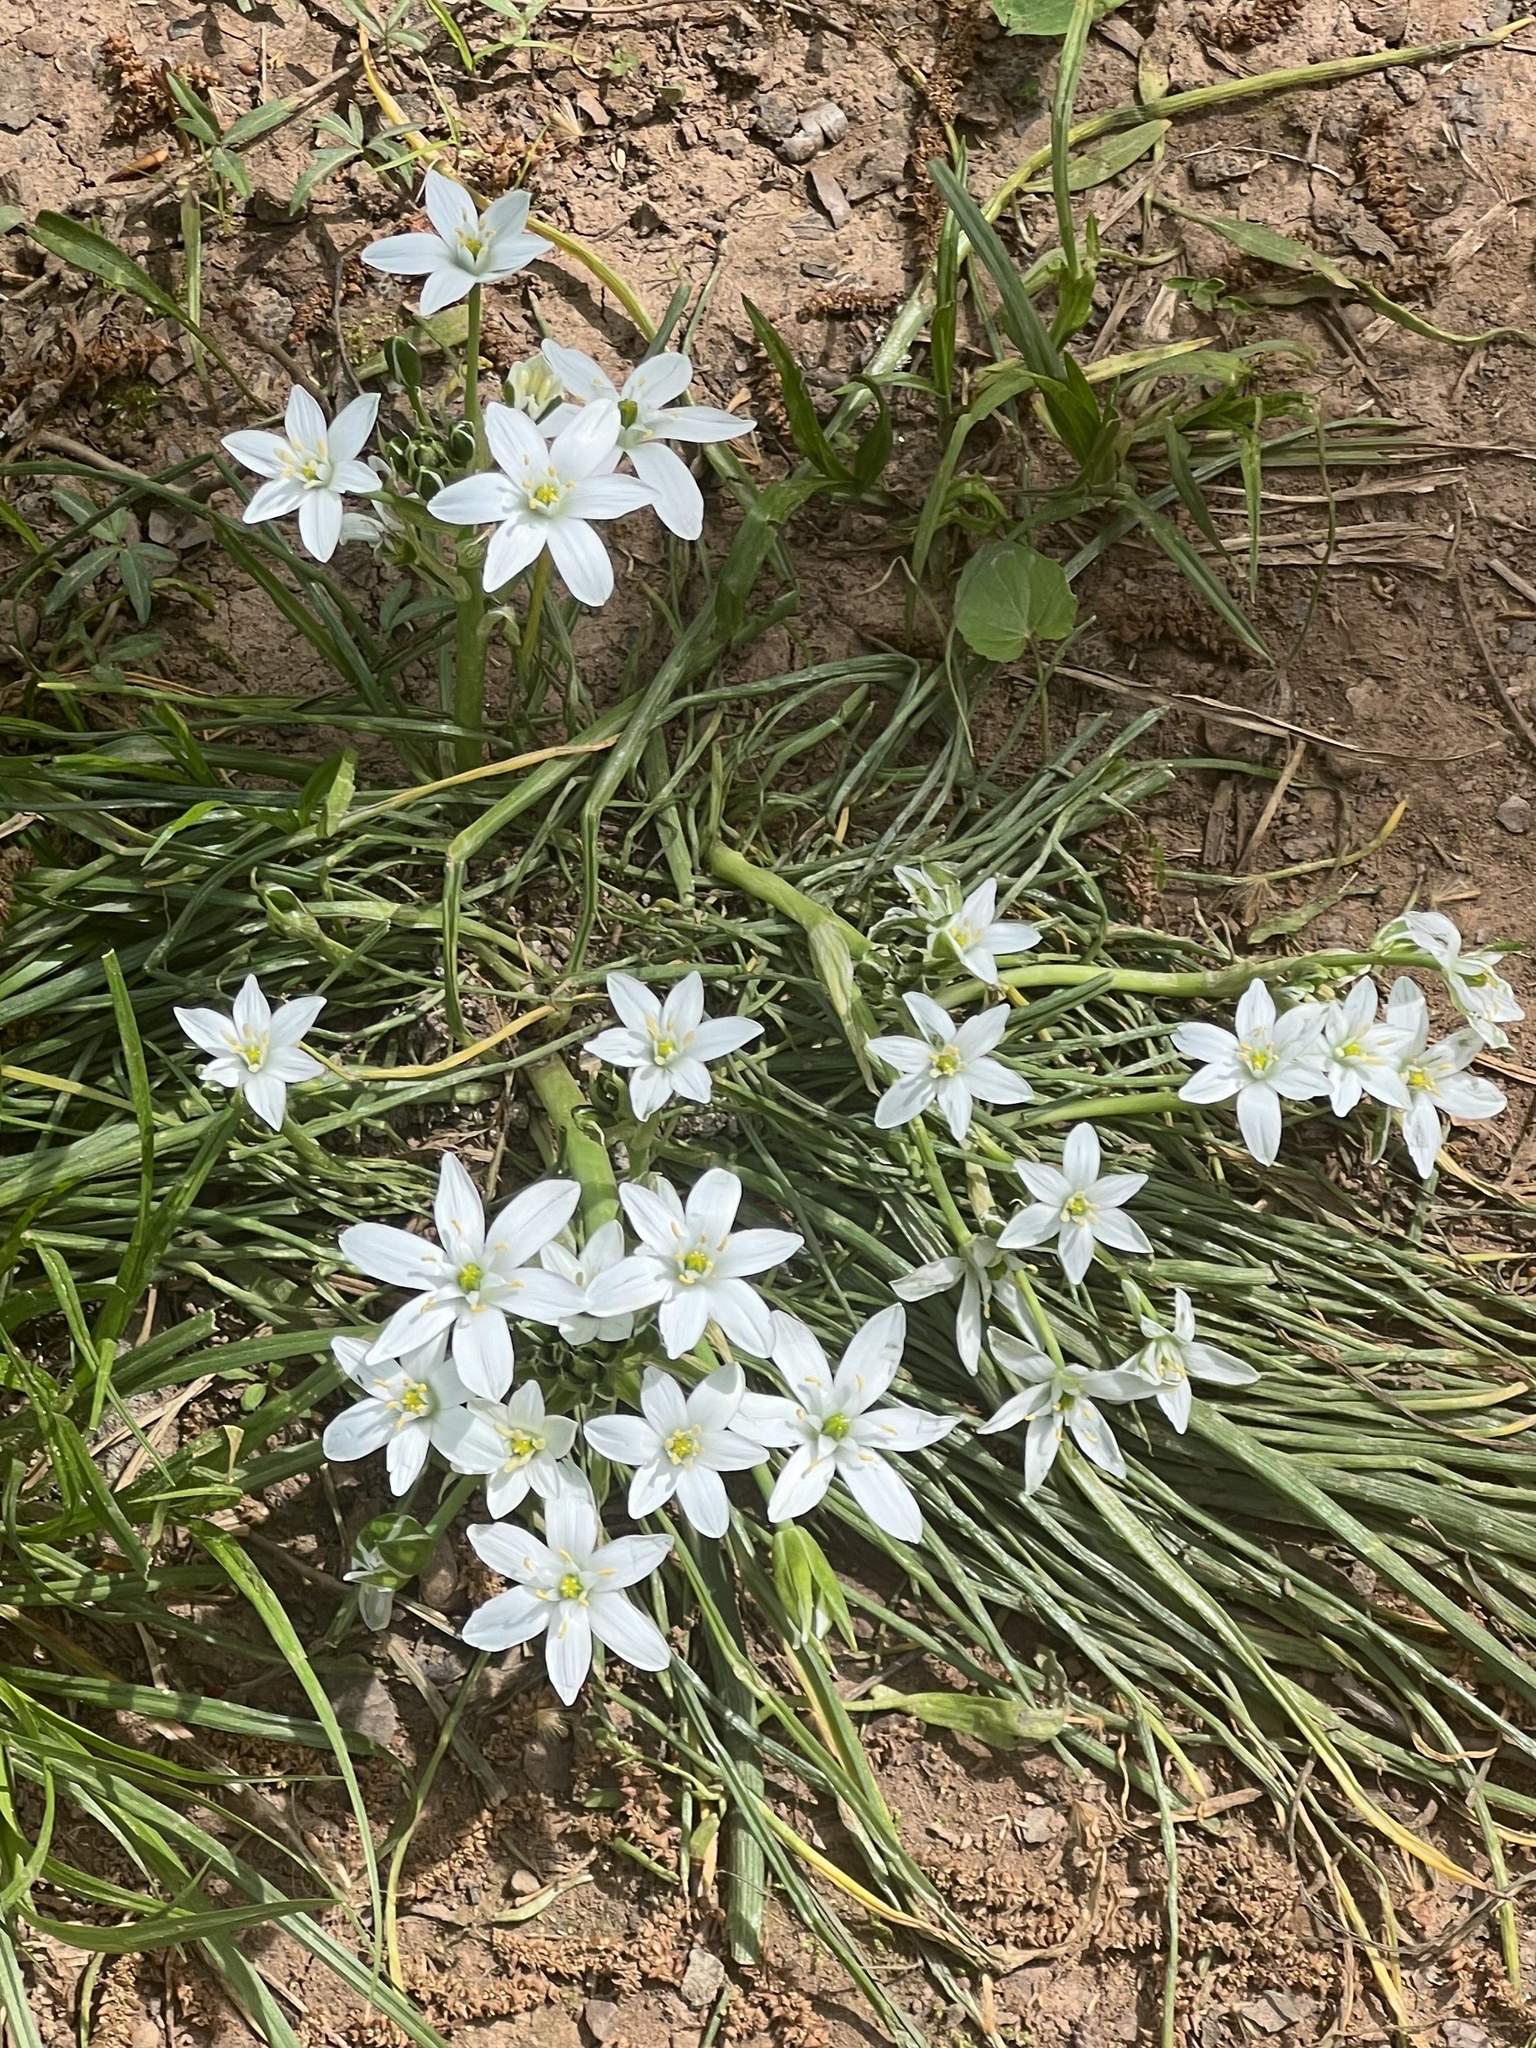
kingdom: Plantae
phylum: Tracheophyta
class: Liliopsida
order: Asparagales
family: Asparagaceae
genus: Ornithogalum
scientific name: Ornithogalum umbellatum
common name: Garden star-of-bethlehem
